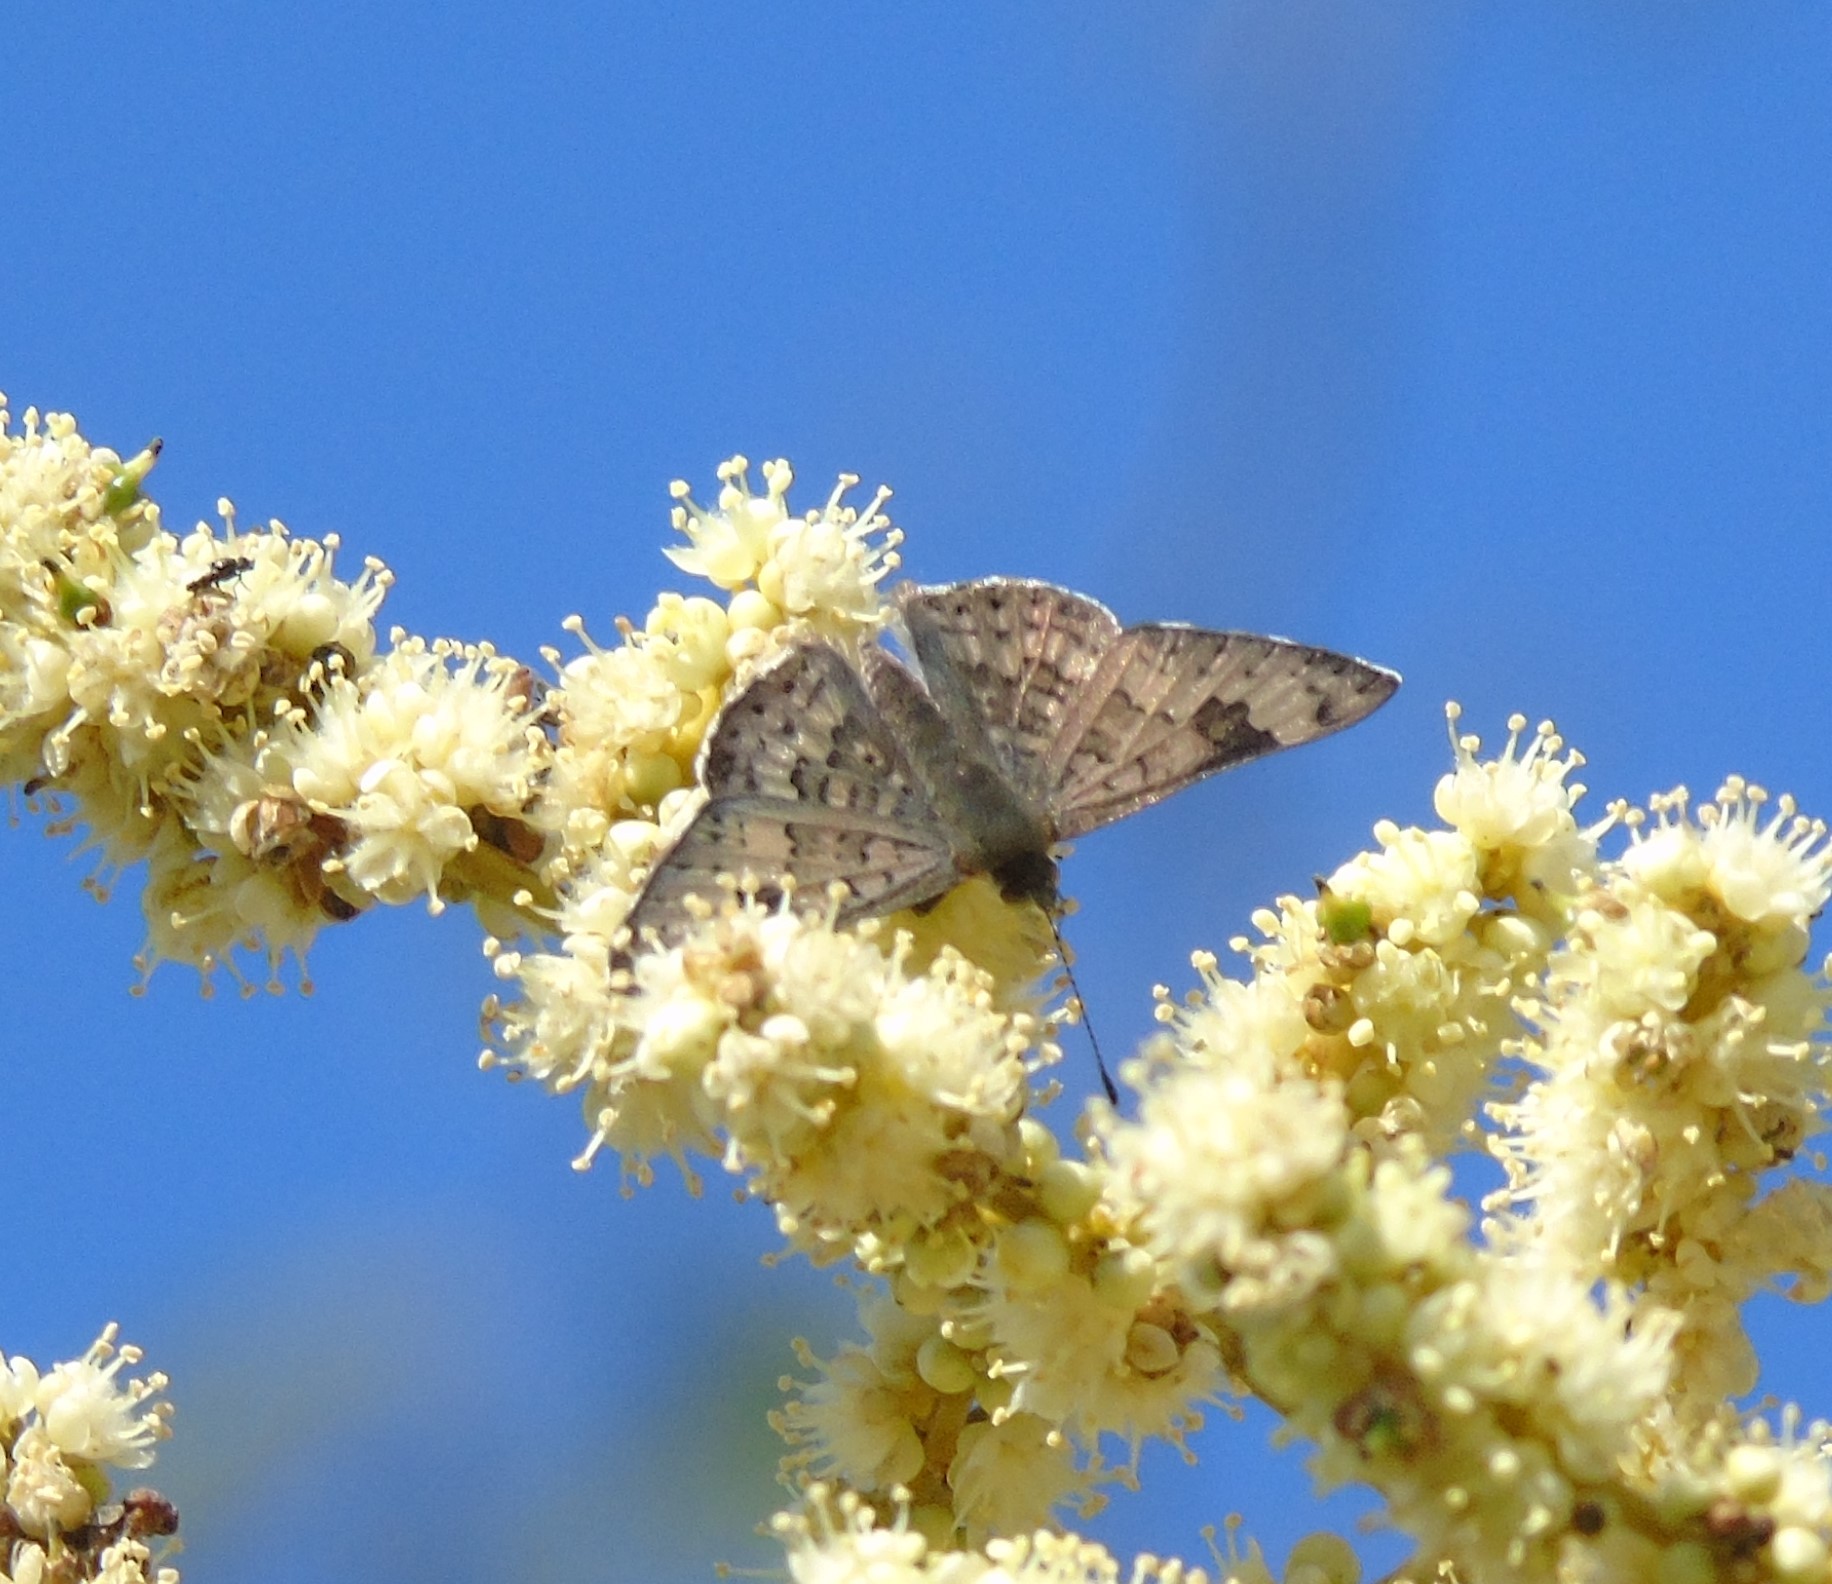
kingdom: Animalia
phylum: Arthropoda
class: Insecta
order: Lepidoptera
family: Riodinidae
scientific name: Riodinidae
